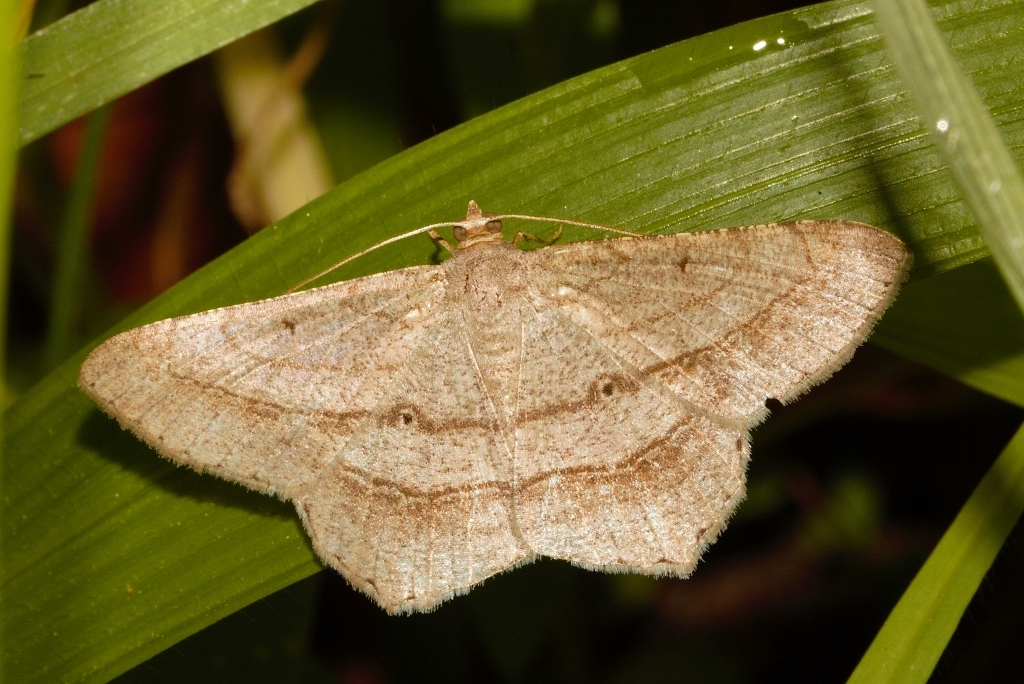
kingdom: Animalia
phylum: Arthropoda
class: Insecta
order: Lepidoptera
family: Geometridae
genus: Chiasmia
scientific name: Chiasmia kilimanjarensis
